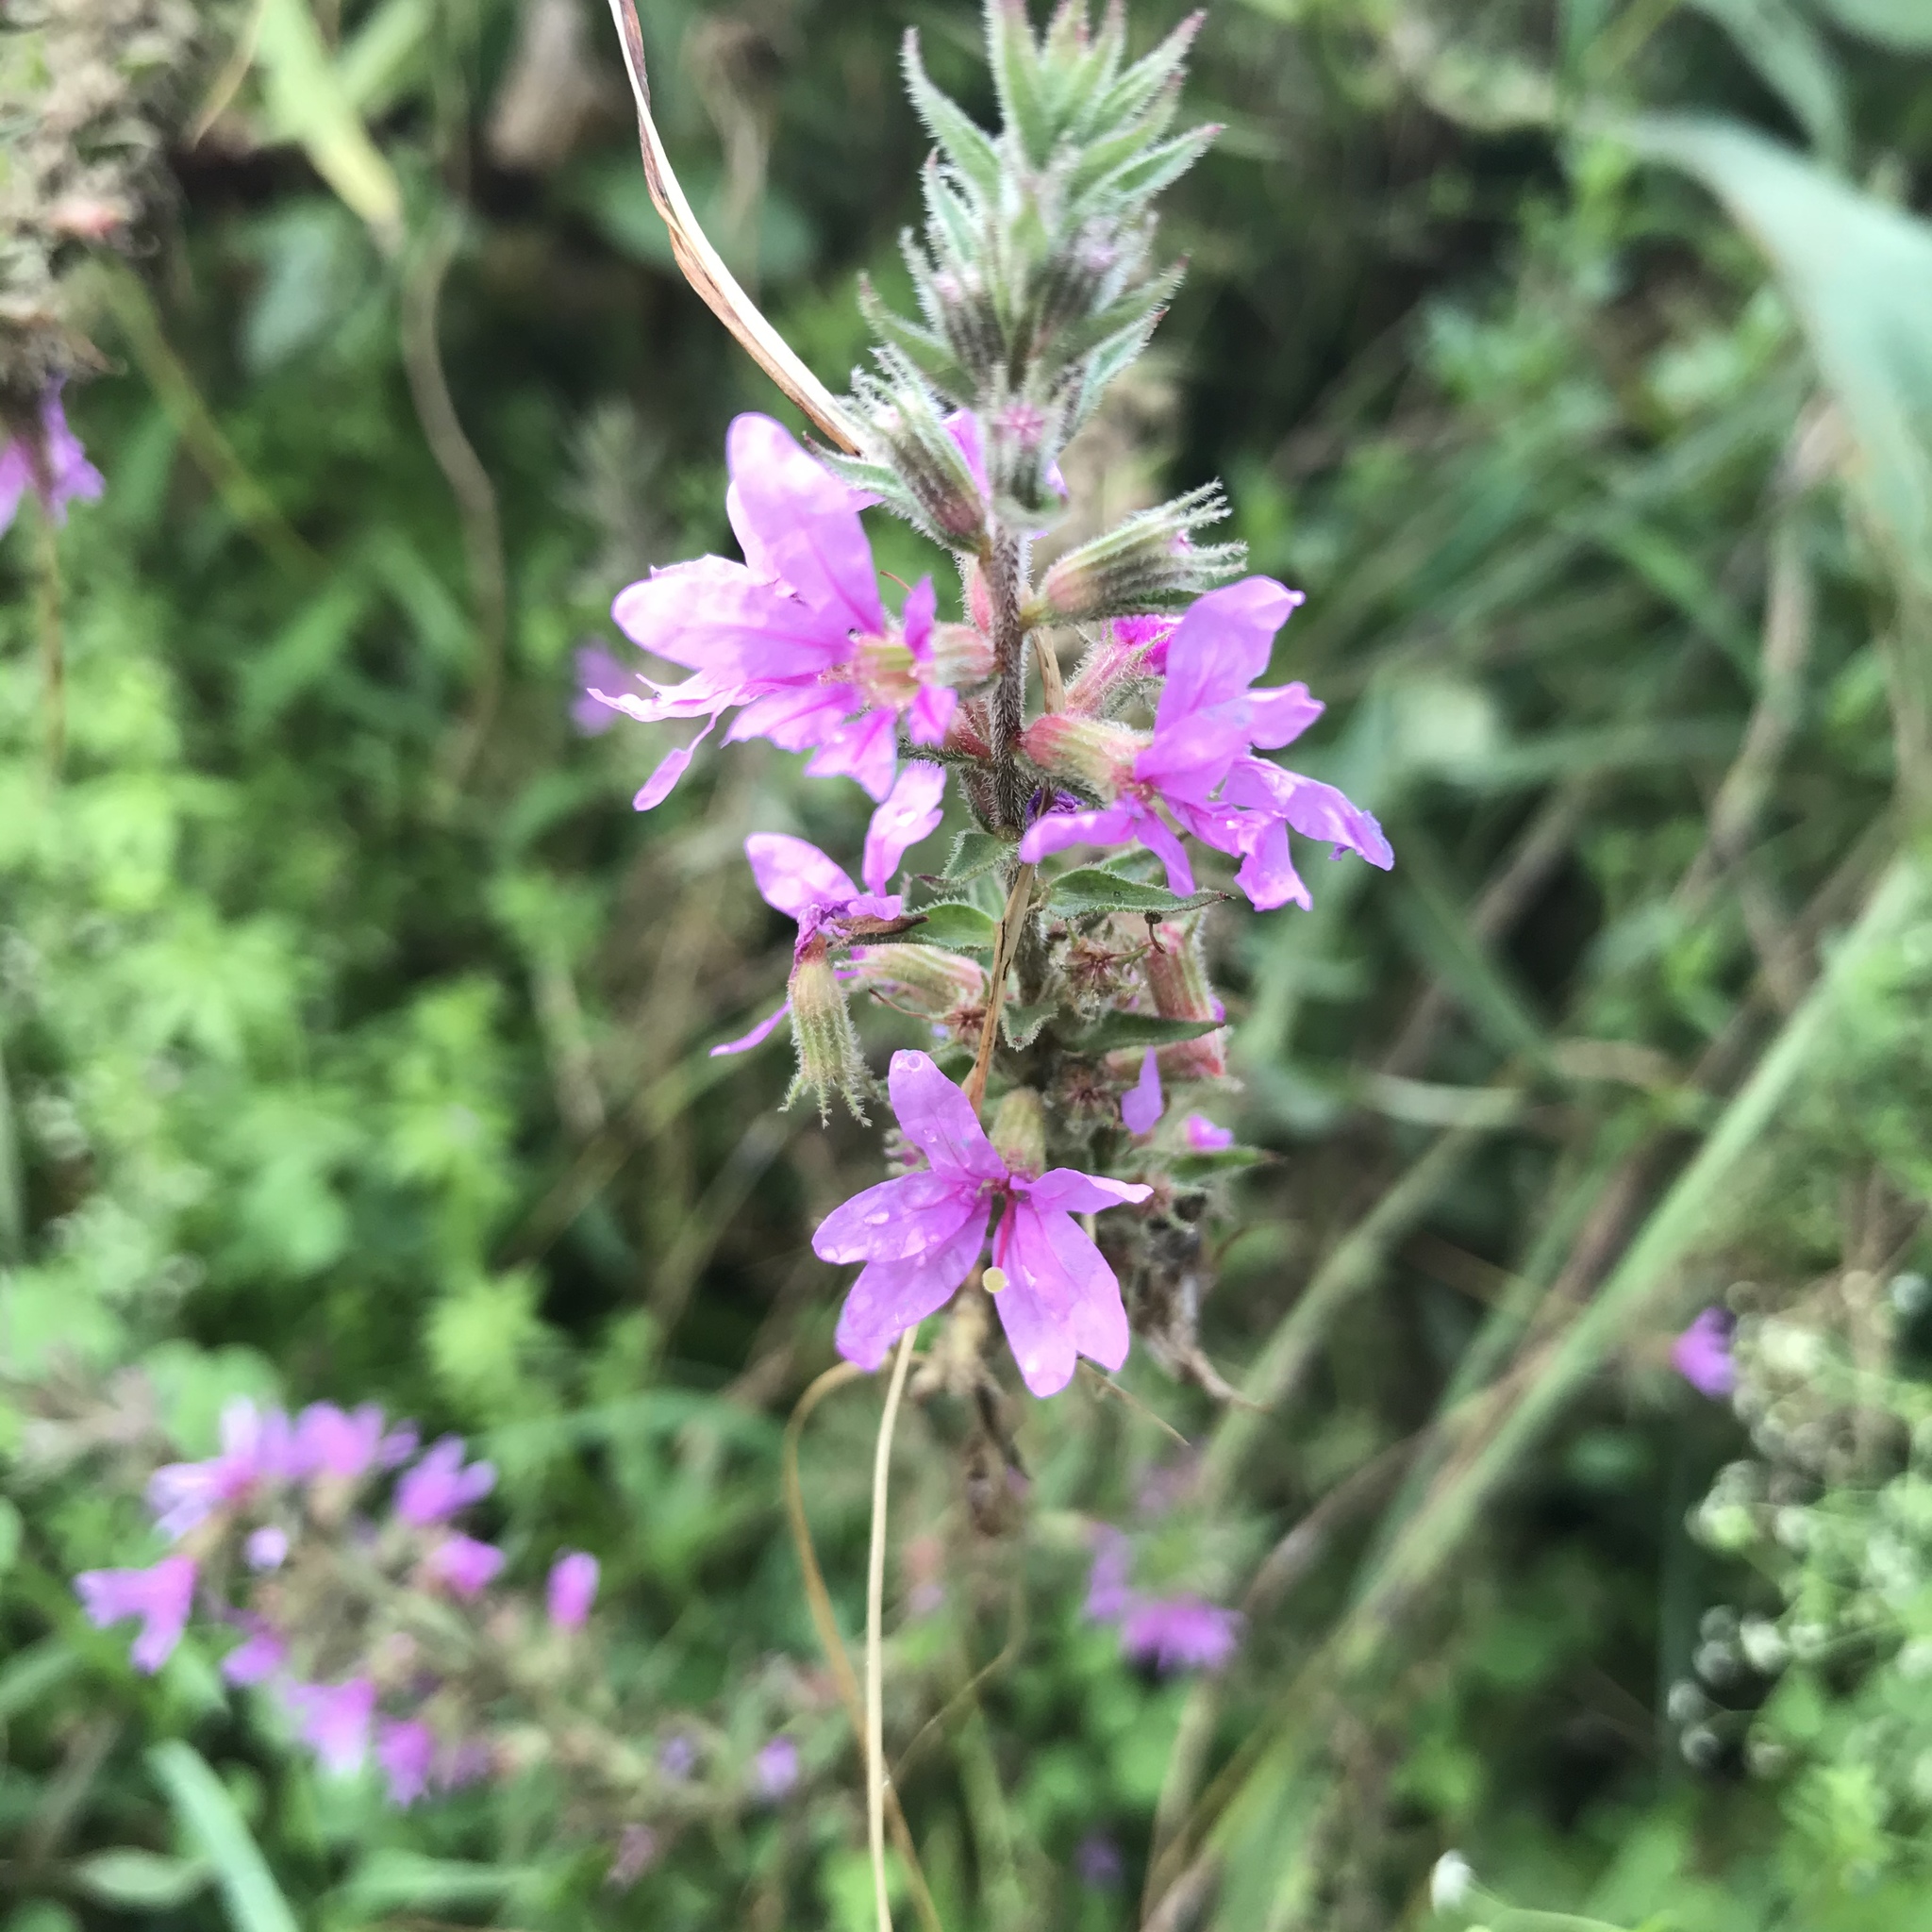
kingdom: Plantae
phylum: Tracheophyta
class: Magnoliopsida
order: Myrtales
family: Lythraceae
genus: Lythrum
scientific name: Lythrum salicaria
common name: Purple loosestrife
